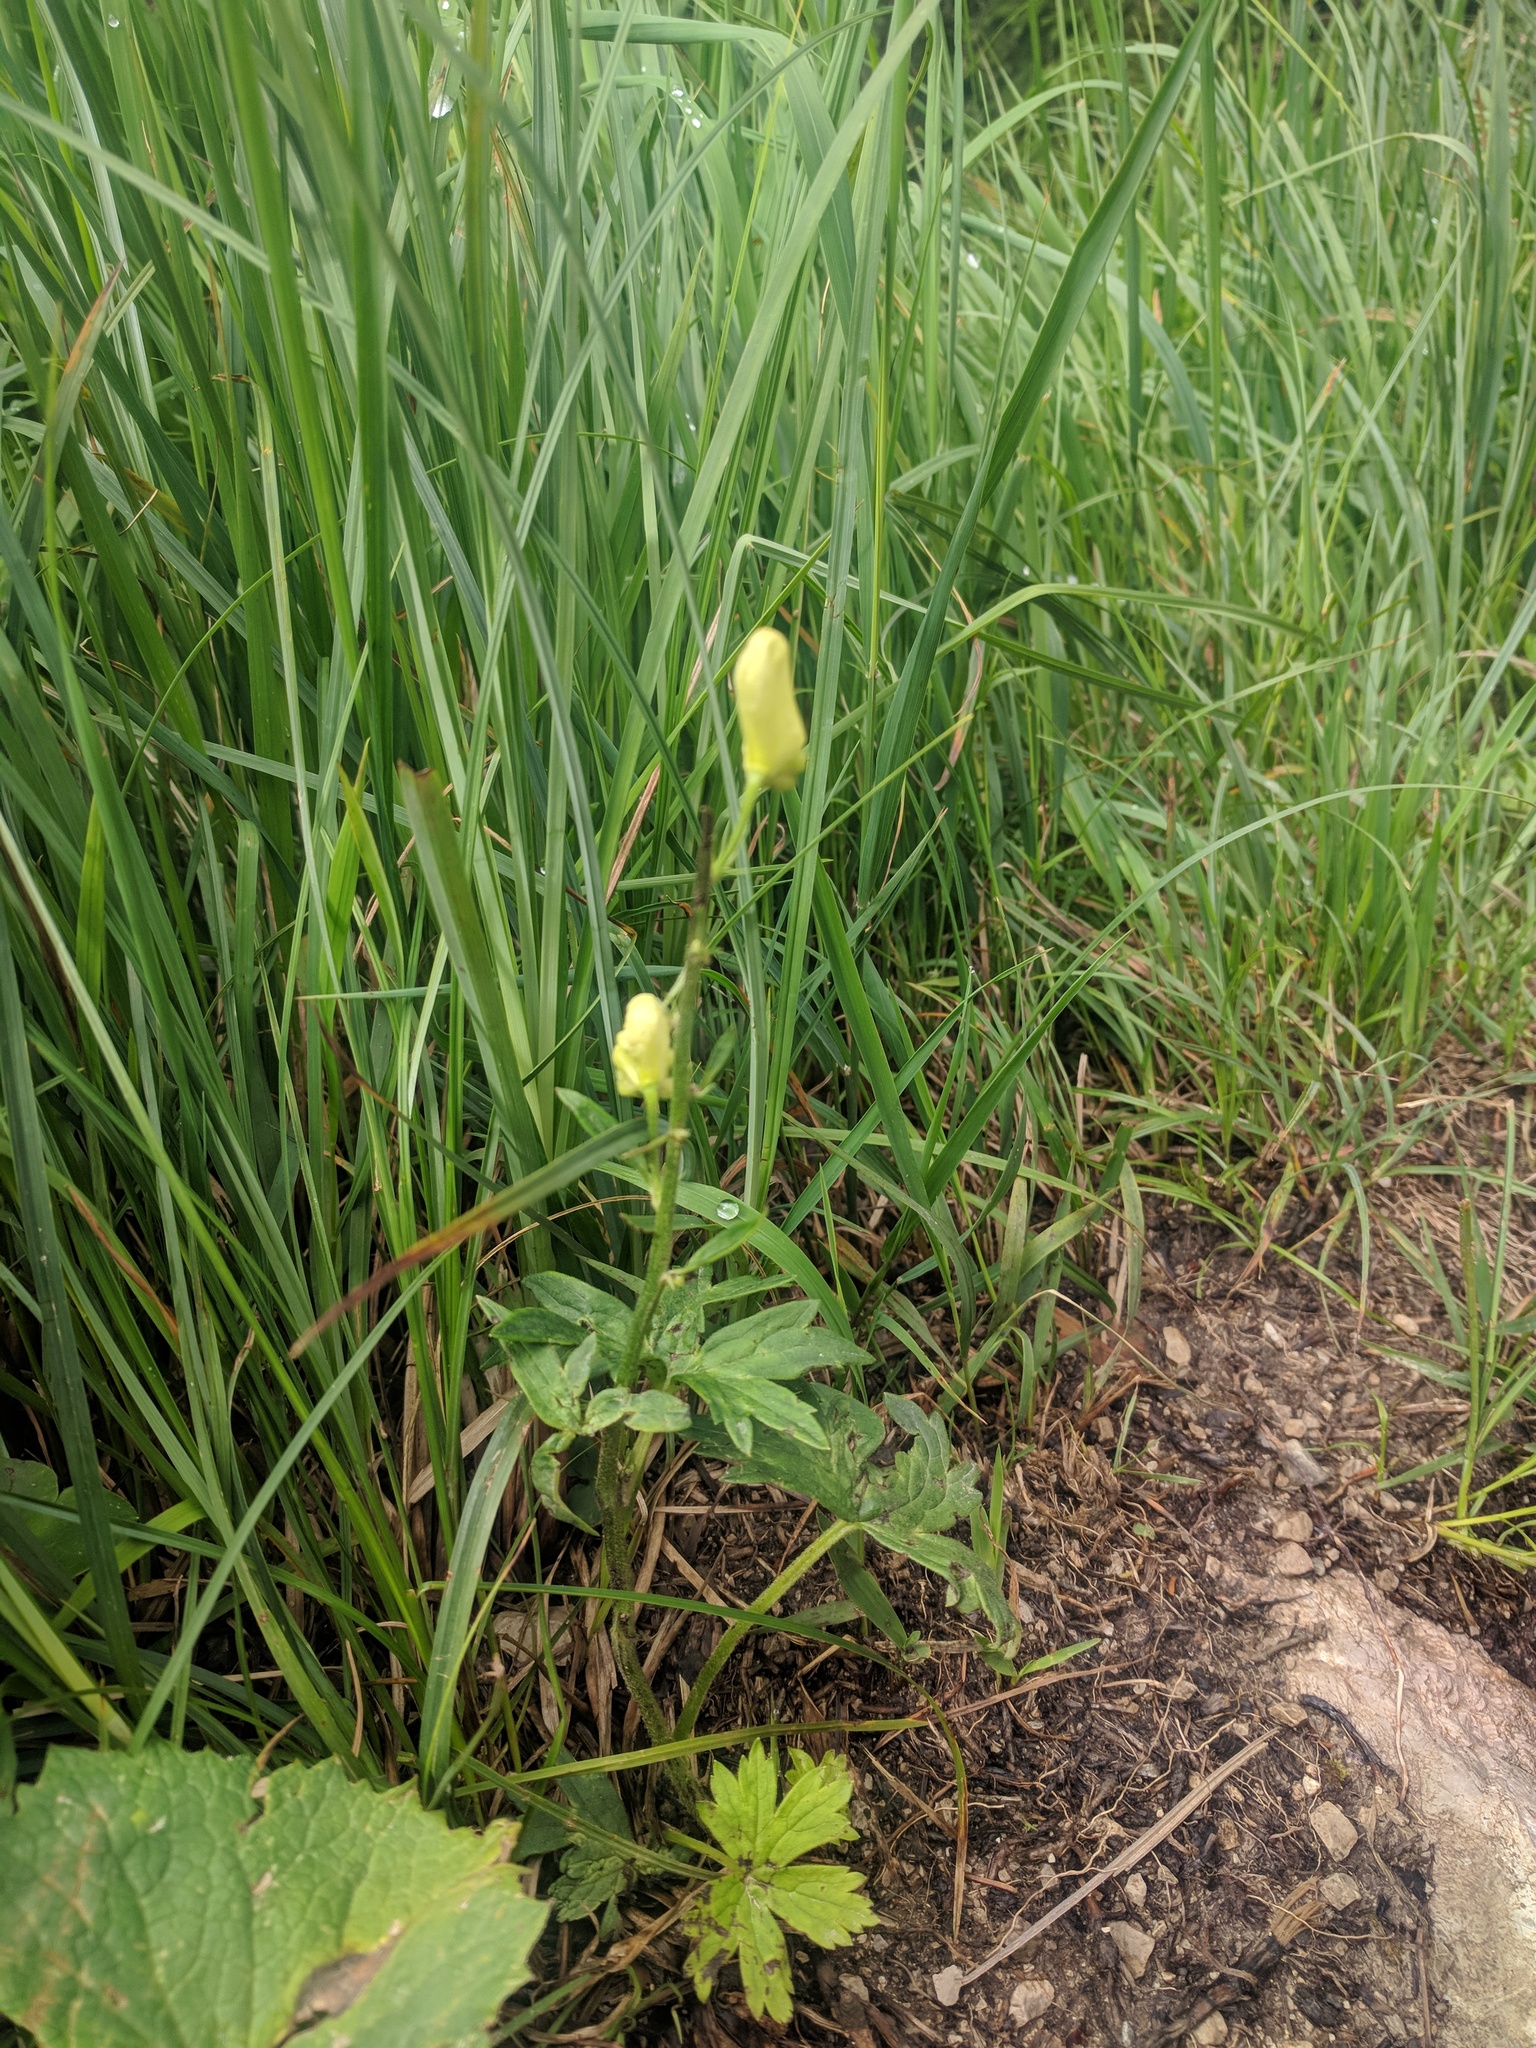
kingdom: Plantae
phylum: Tracheophyta
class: Magnoliopsida
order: Ranunculales
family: Ranunculaceae
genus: Aconitum
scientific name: Aconitum lycoctonum
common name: Wolf's-bane
